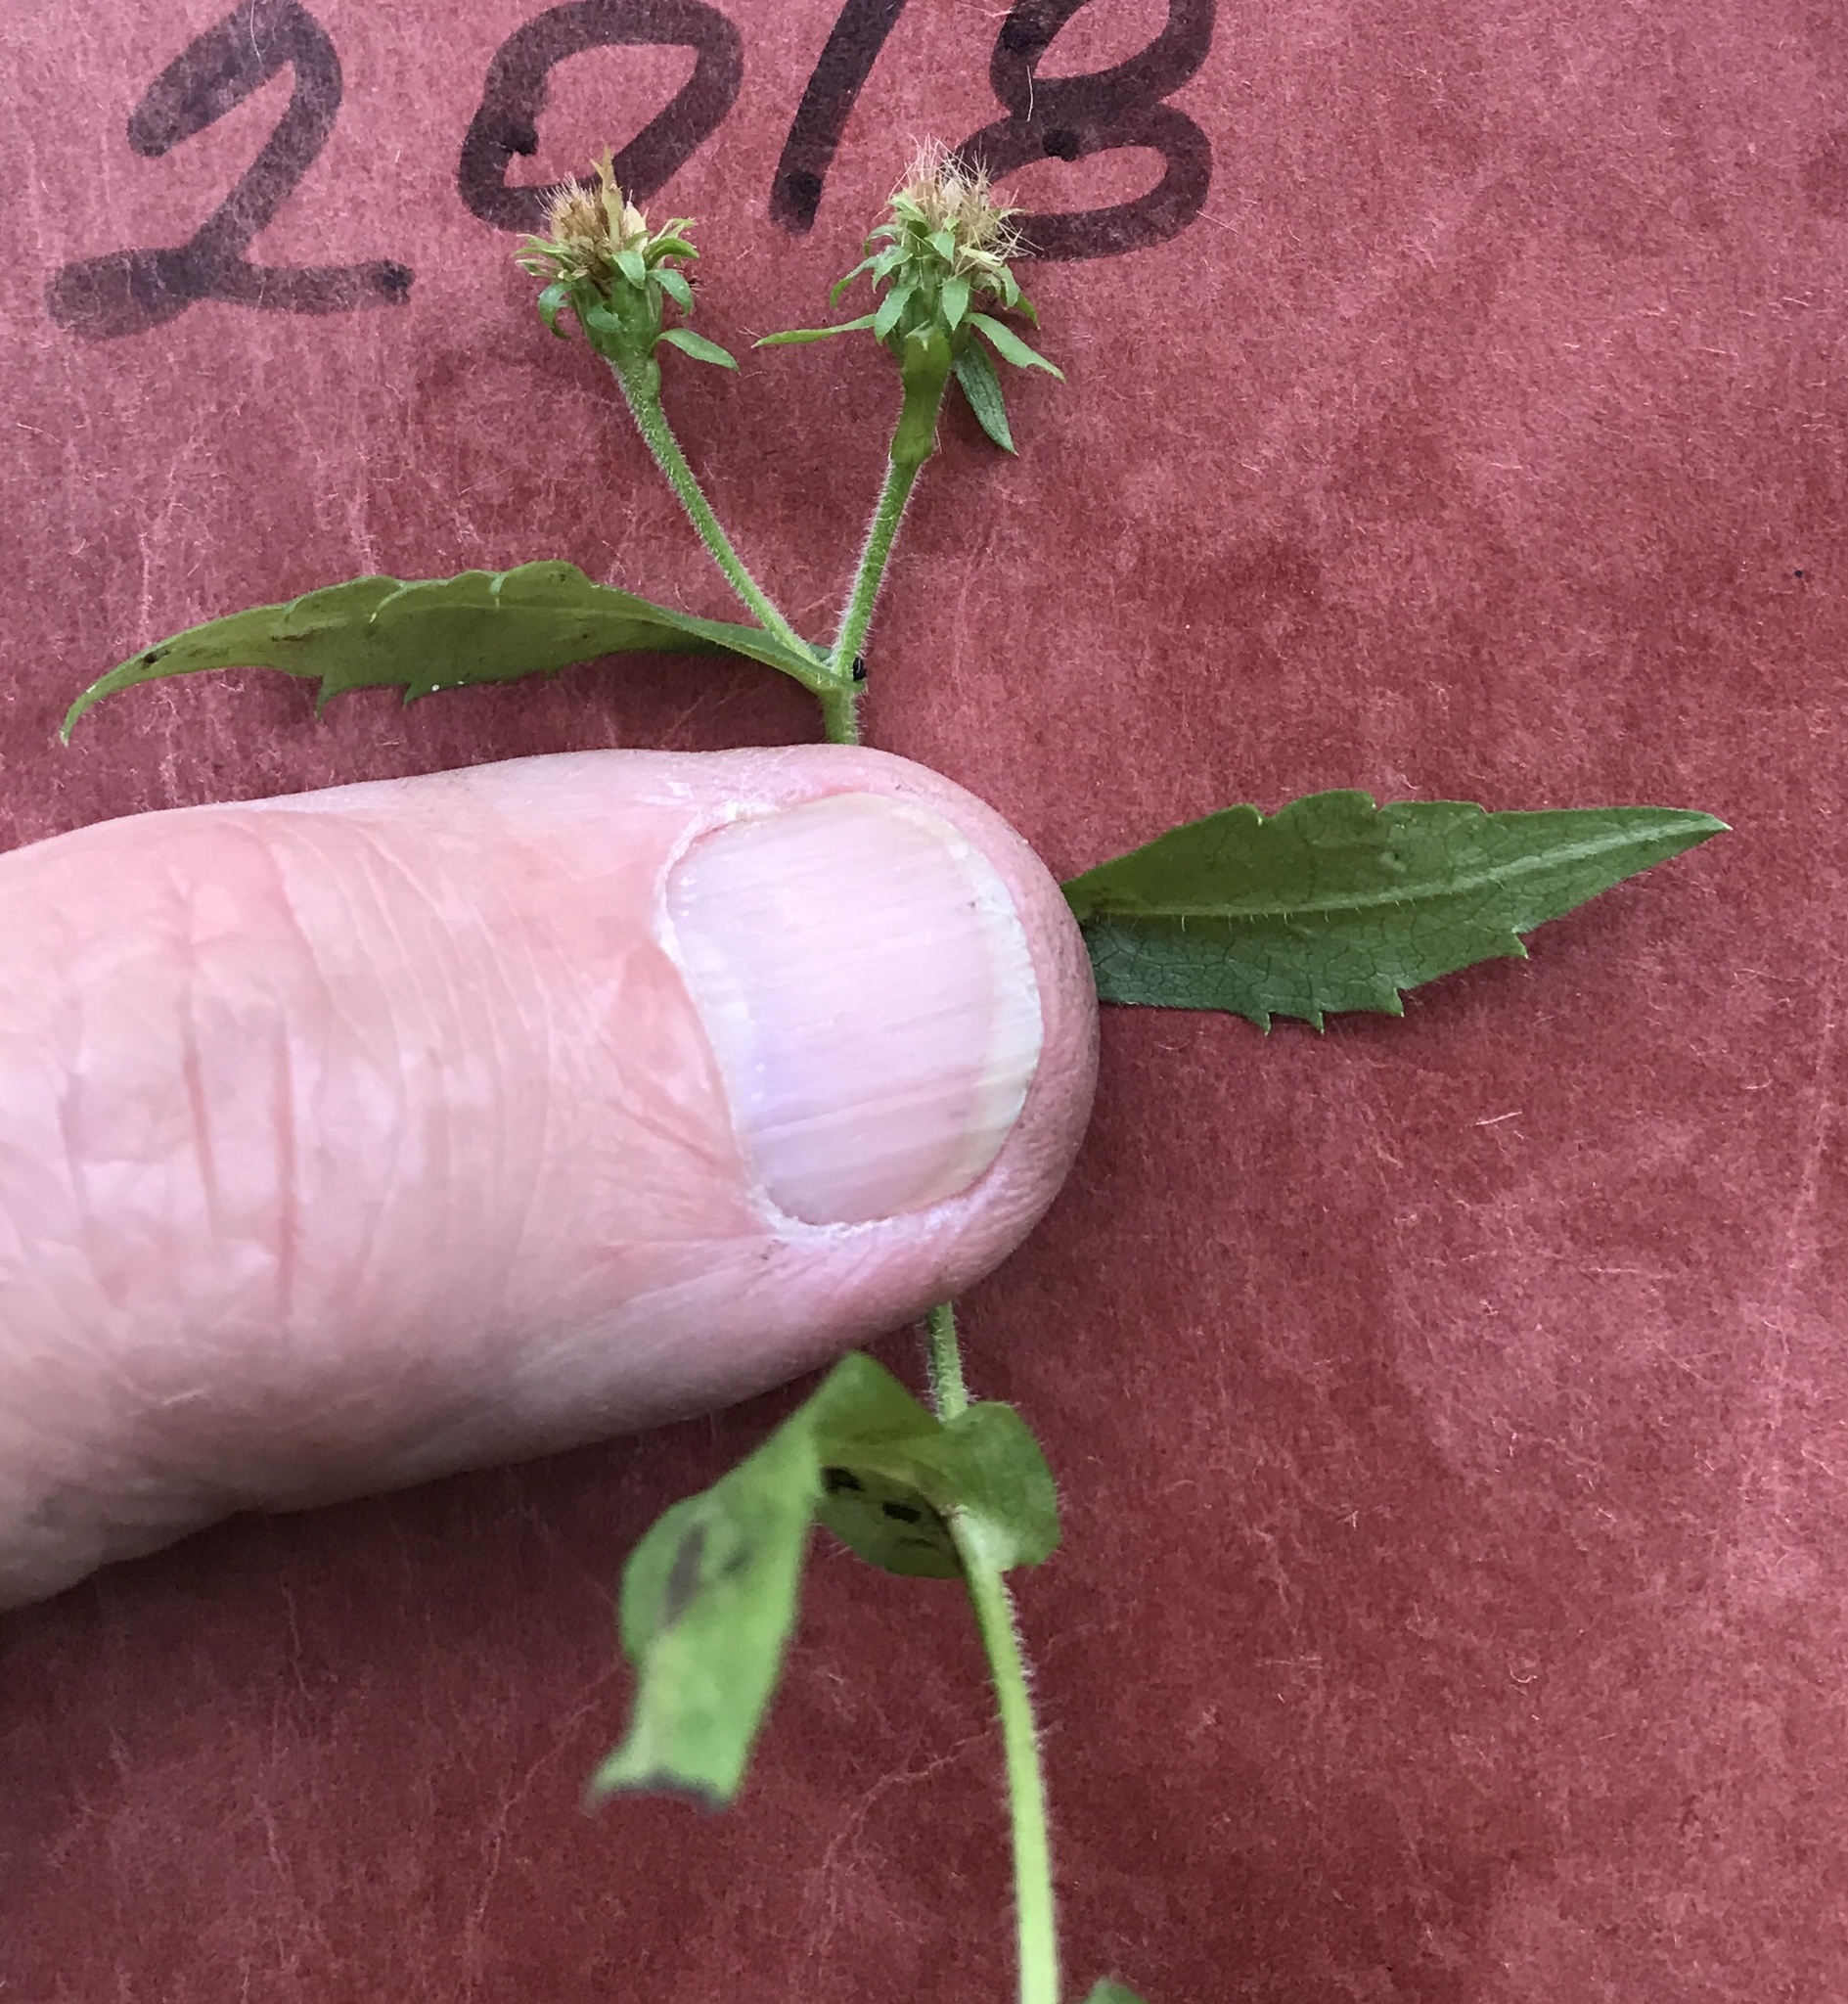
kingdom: Plantae
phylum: Tracheophyta
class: Magnoliopsida
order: Asterales
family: Asteraceae
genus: Symphyotrichum
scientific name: Symphyotrichum prenanthoides
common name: Crooked-stem aster
